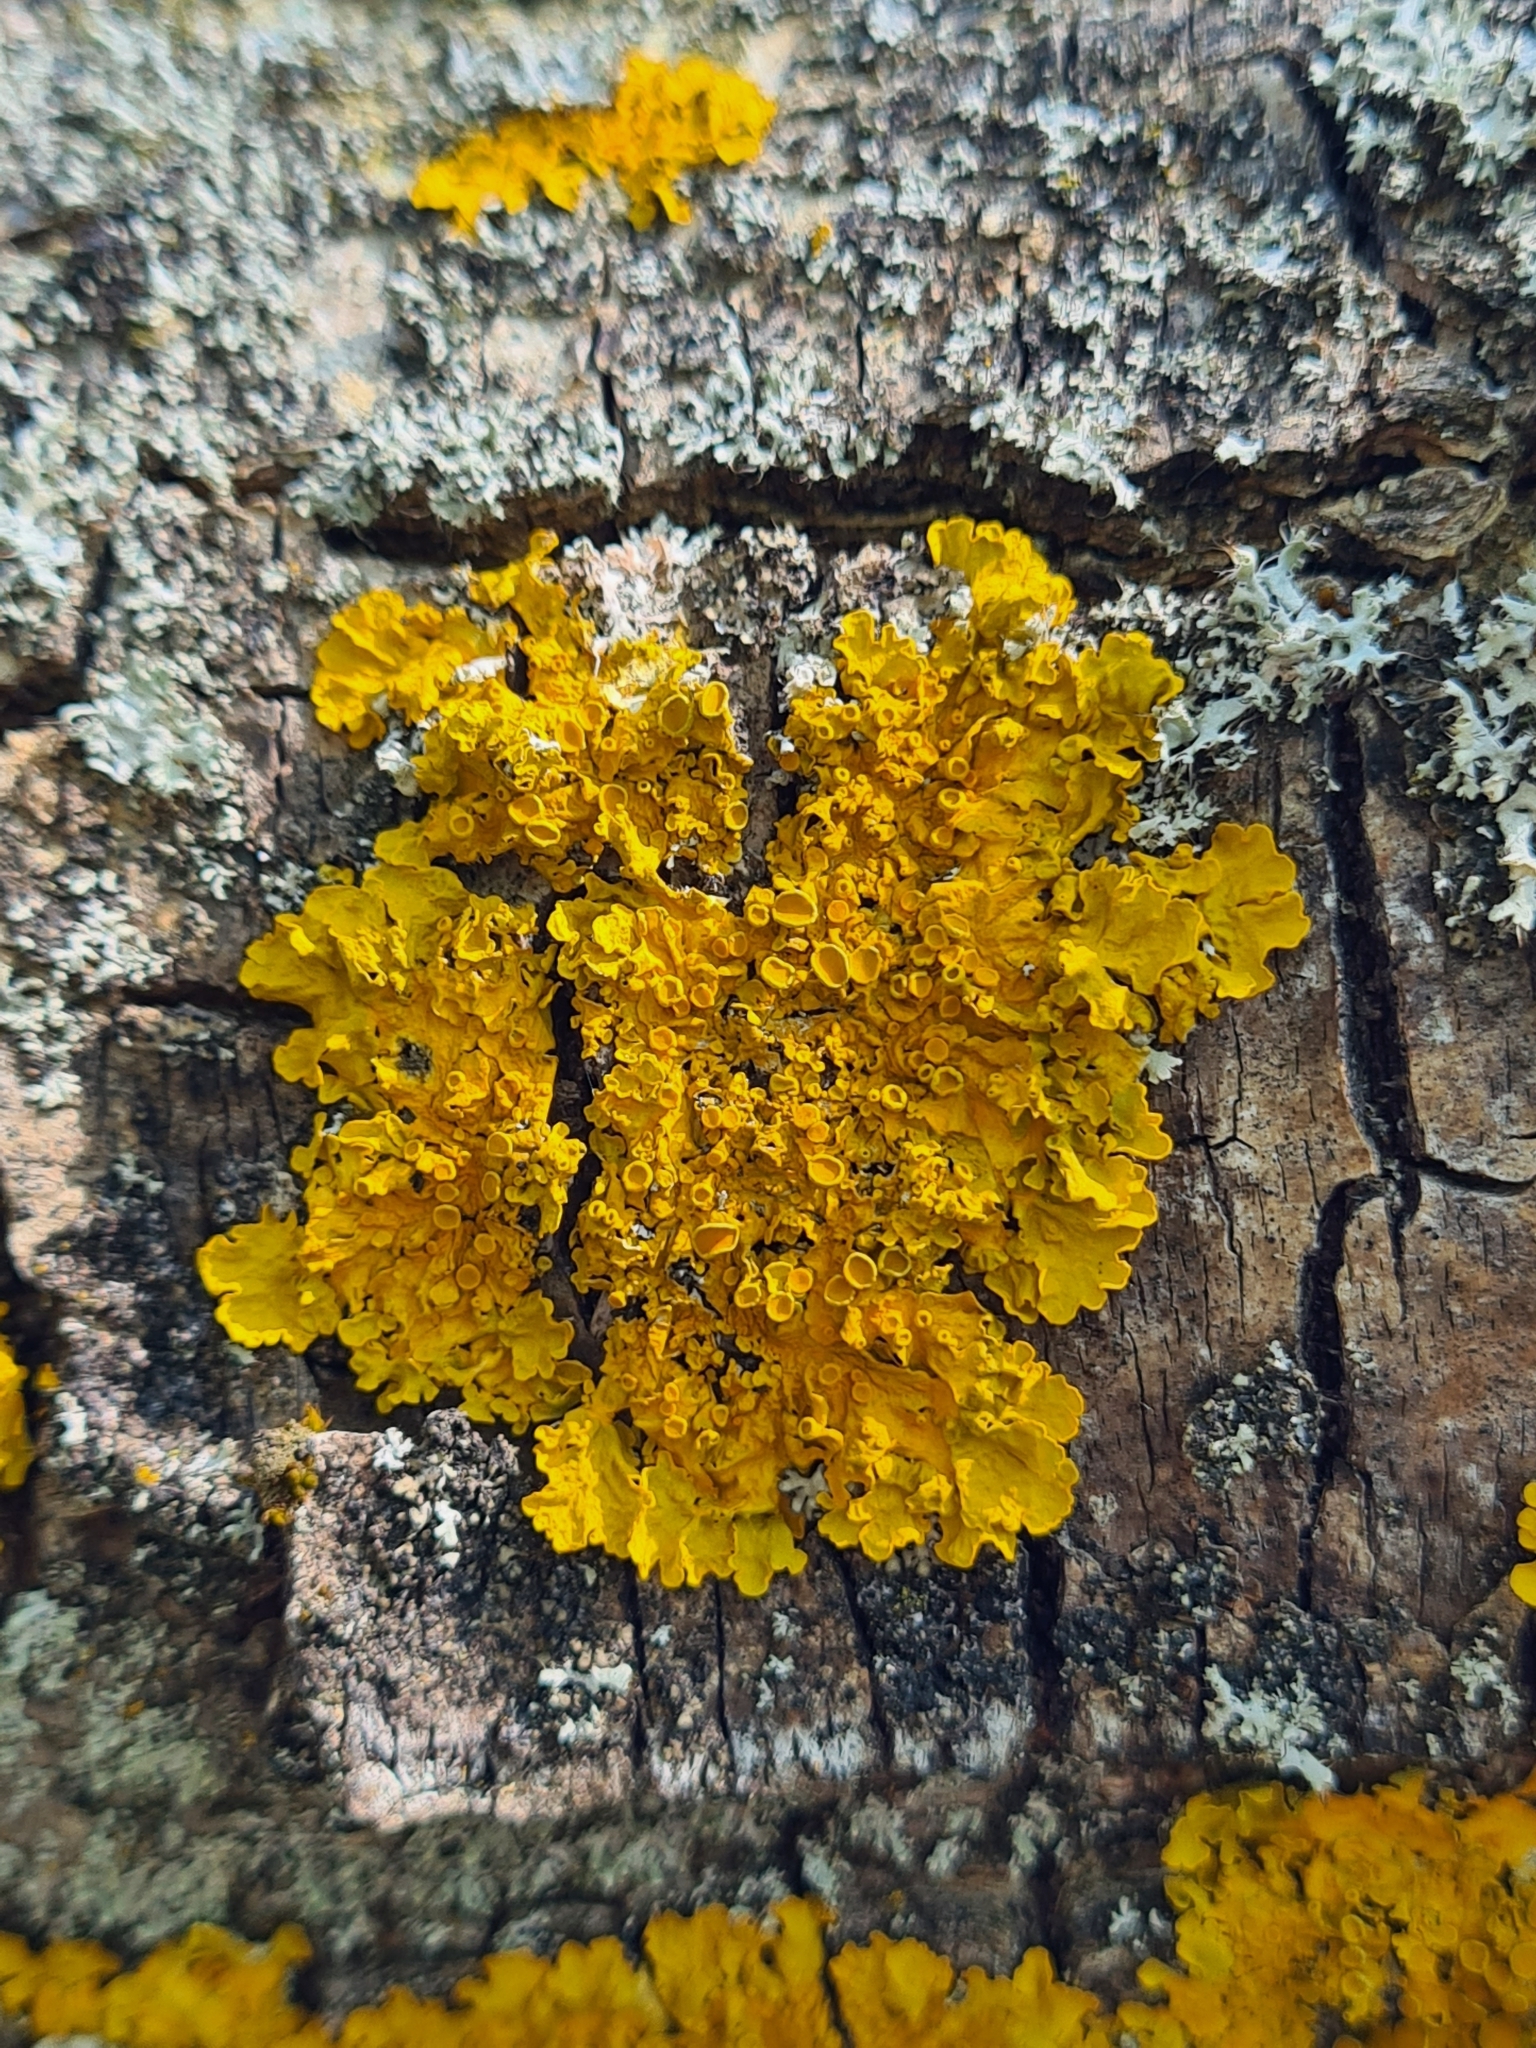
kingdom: Fungi
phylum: Ascomycota
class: Lecanoromycetes
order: Teloschistales
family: Teloschistaceae
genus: Xanthoria
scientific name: Xanthoria parietina
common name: Common orange lichen
